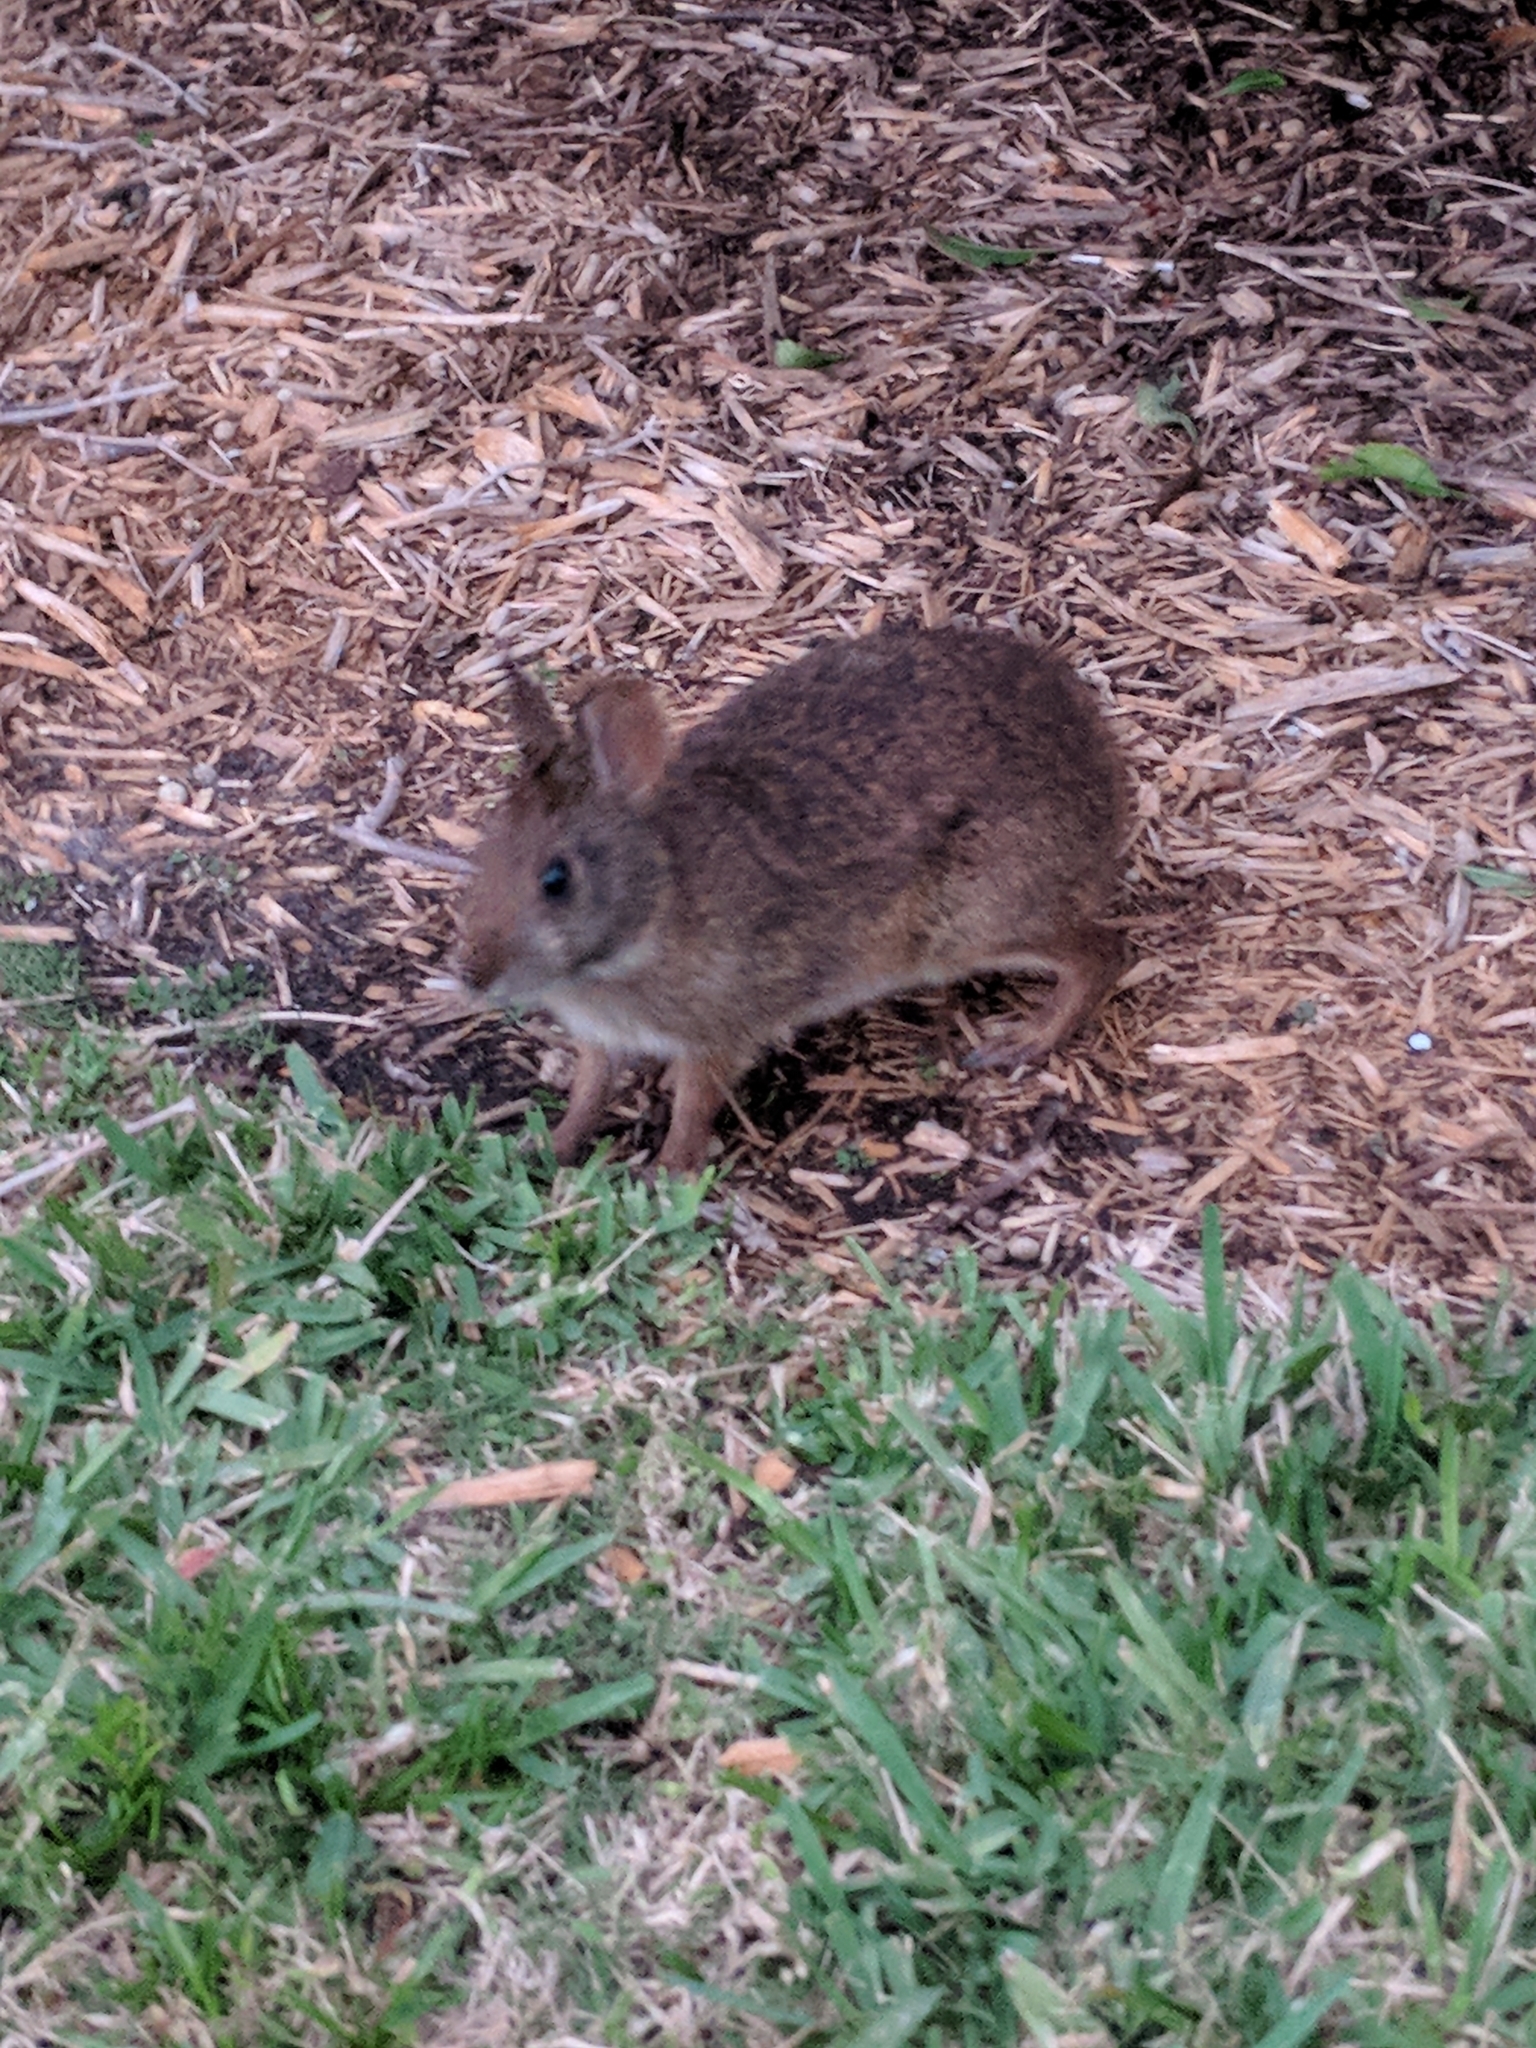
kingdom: Animalia
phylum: Chordata
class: Mammalia
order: Lagomorpha
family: Leporidae
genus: Sylvilagus
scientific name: Sylvilagus palustris
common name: Marsh rabbit
